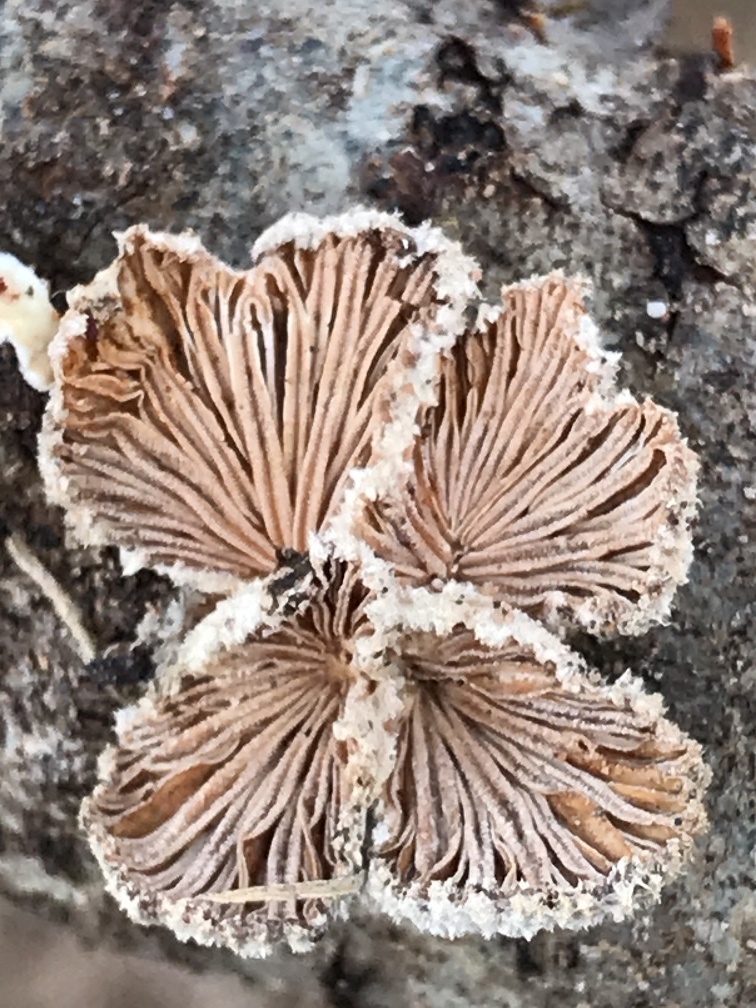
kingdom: Fungi
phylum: Basidiomycota
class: Agaricomycetes
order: Agaricales
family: Schizophyllaceae
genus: Schizophyllum
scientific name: Schizophyllum commune
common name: Common porecrust
